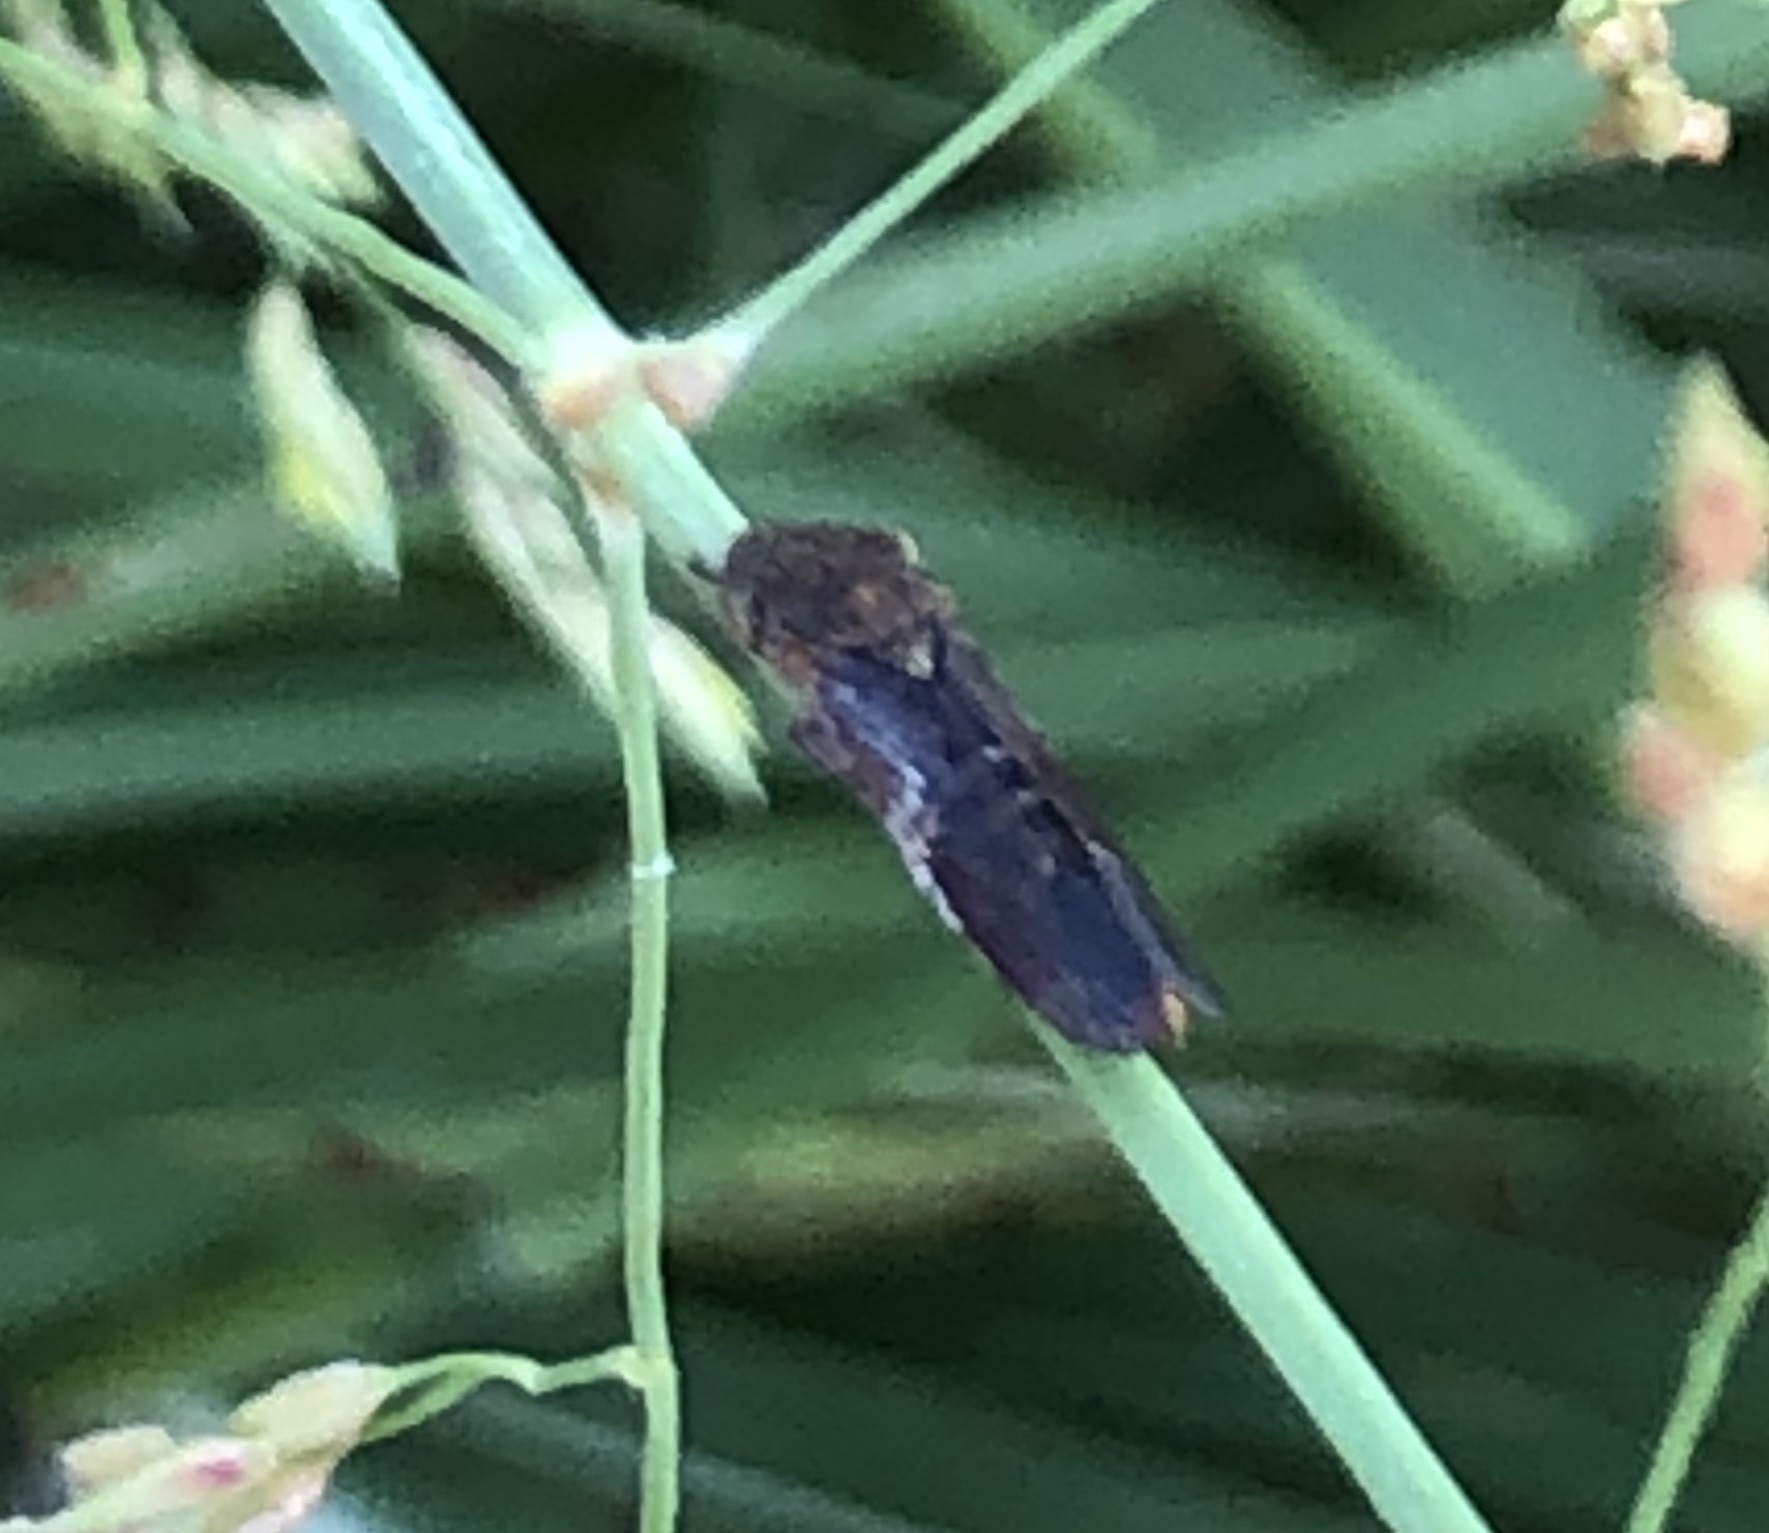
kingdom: Animalia
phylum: Arthropoda
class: Insecta
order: Hemiptera
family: Cicadellidae
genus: Homalodisca
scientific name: Homalodisca vitripennis
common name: Glassy-winged sharpshooter
